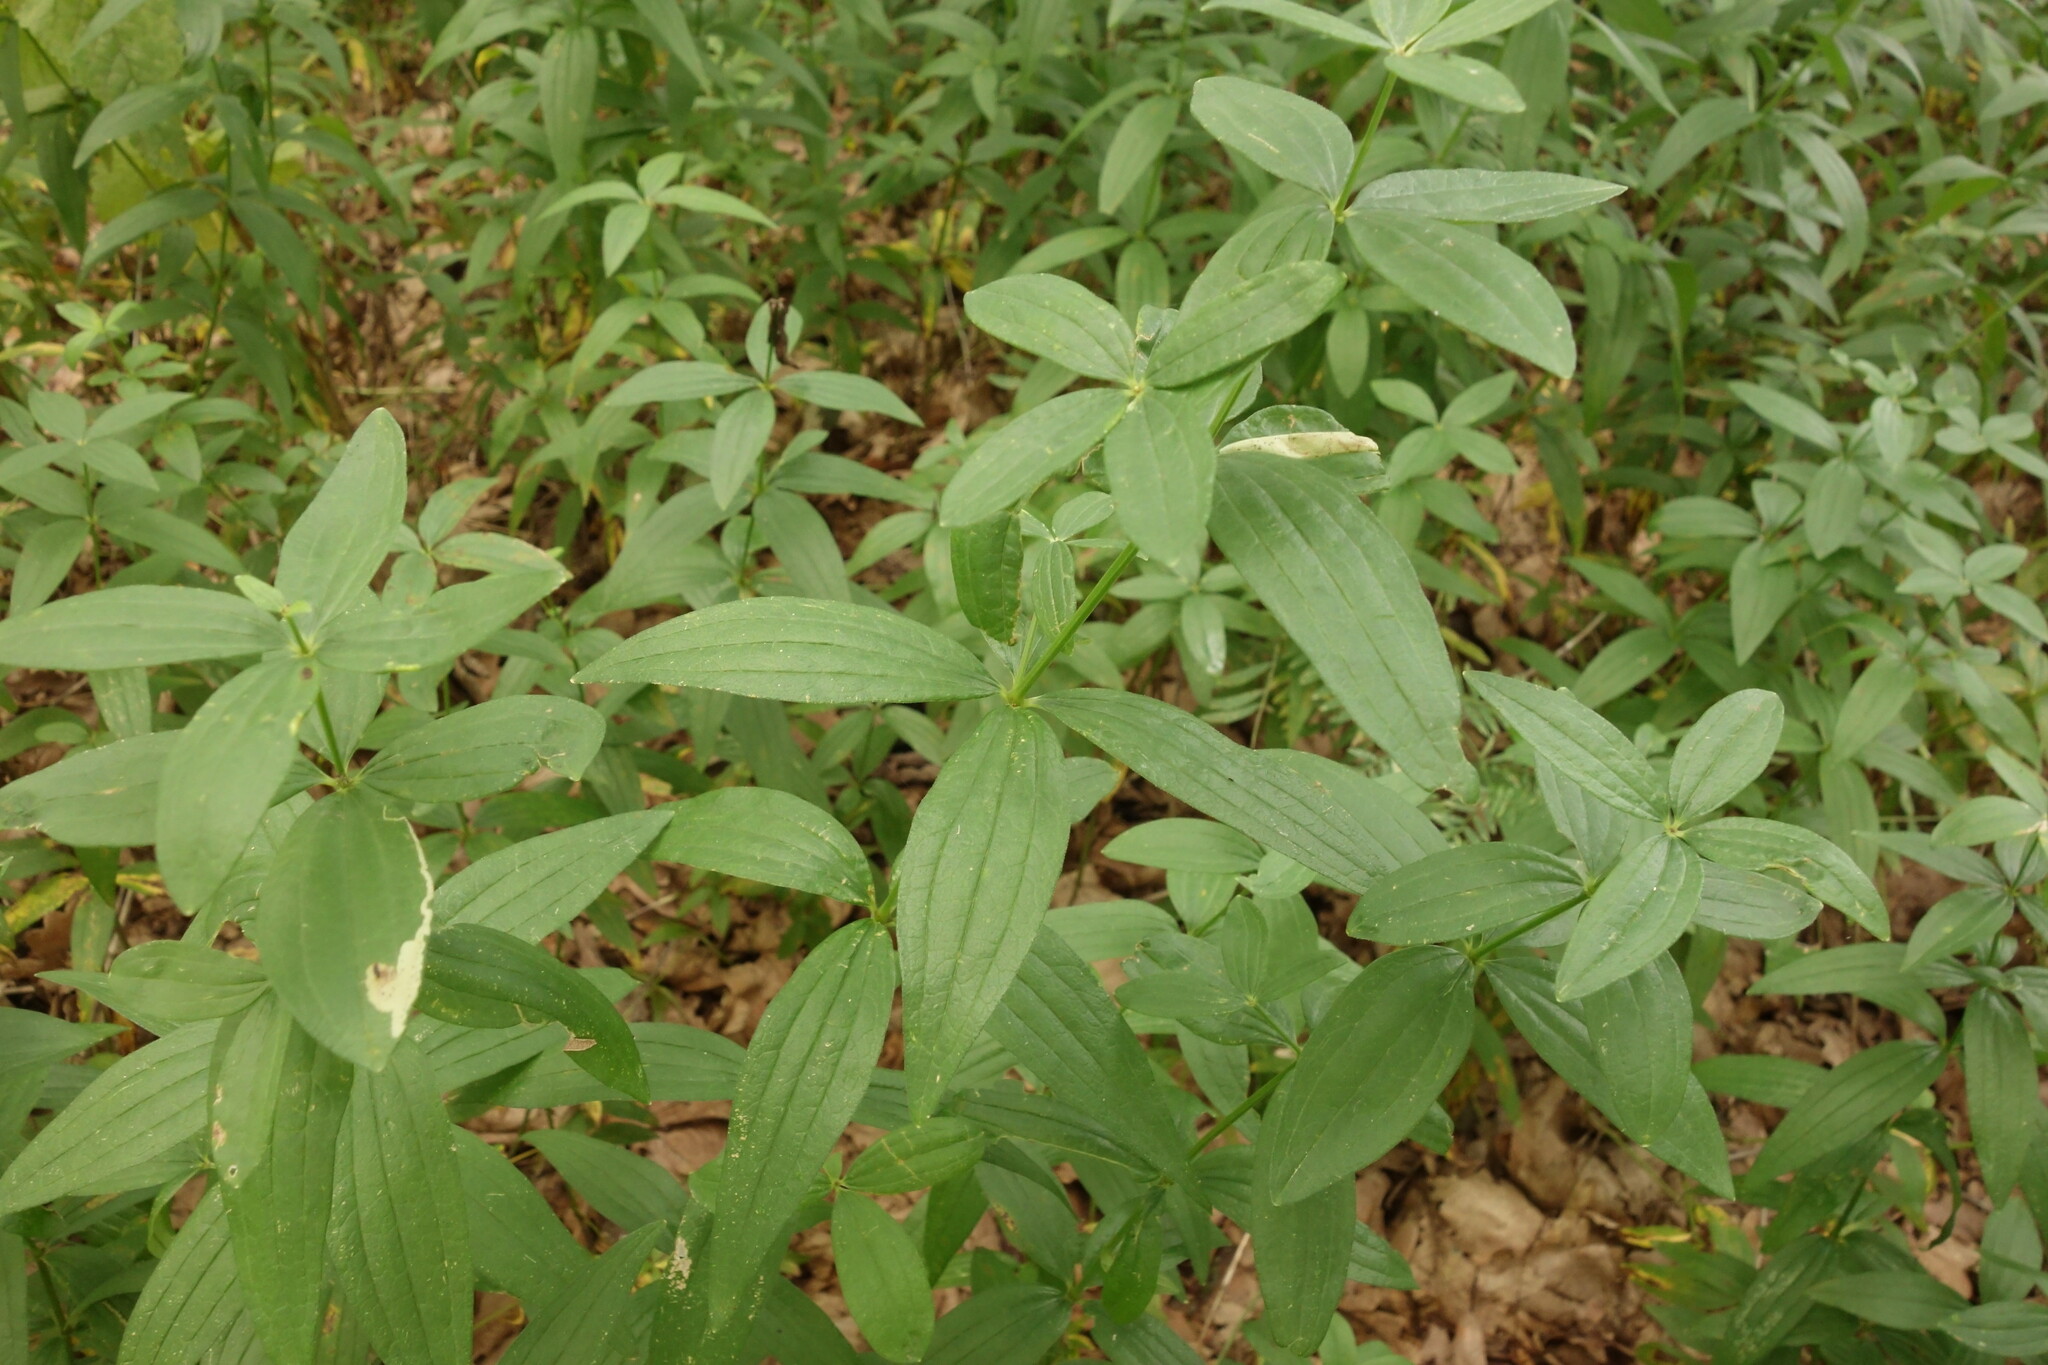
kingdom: Plantae
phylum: Tracheophyta
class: Magnoliopsida
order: Gentianales
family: Rubiaceae
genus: Galium
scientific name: Galium rubioides
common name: European bedstraw
